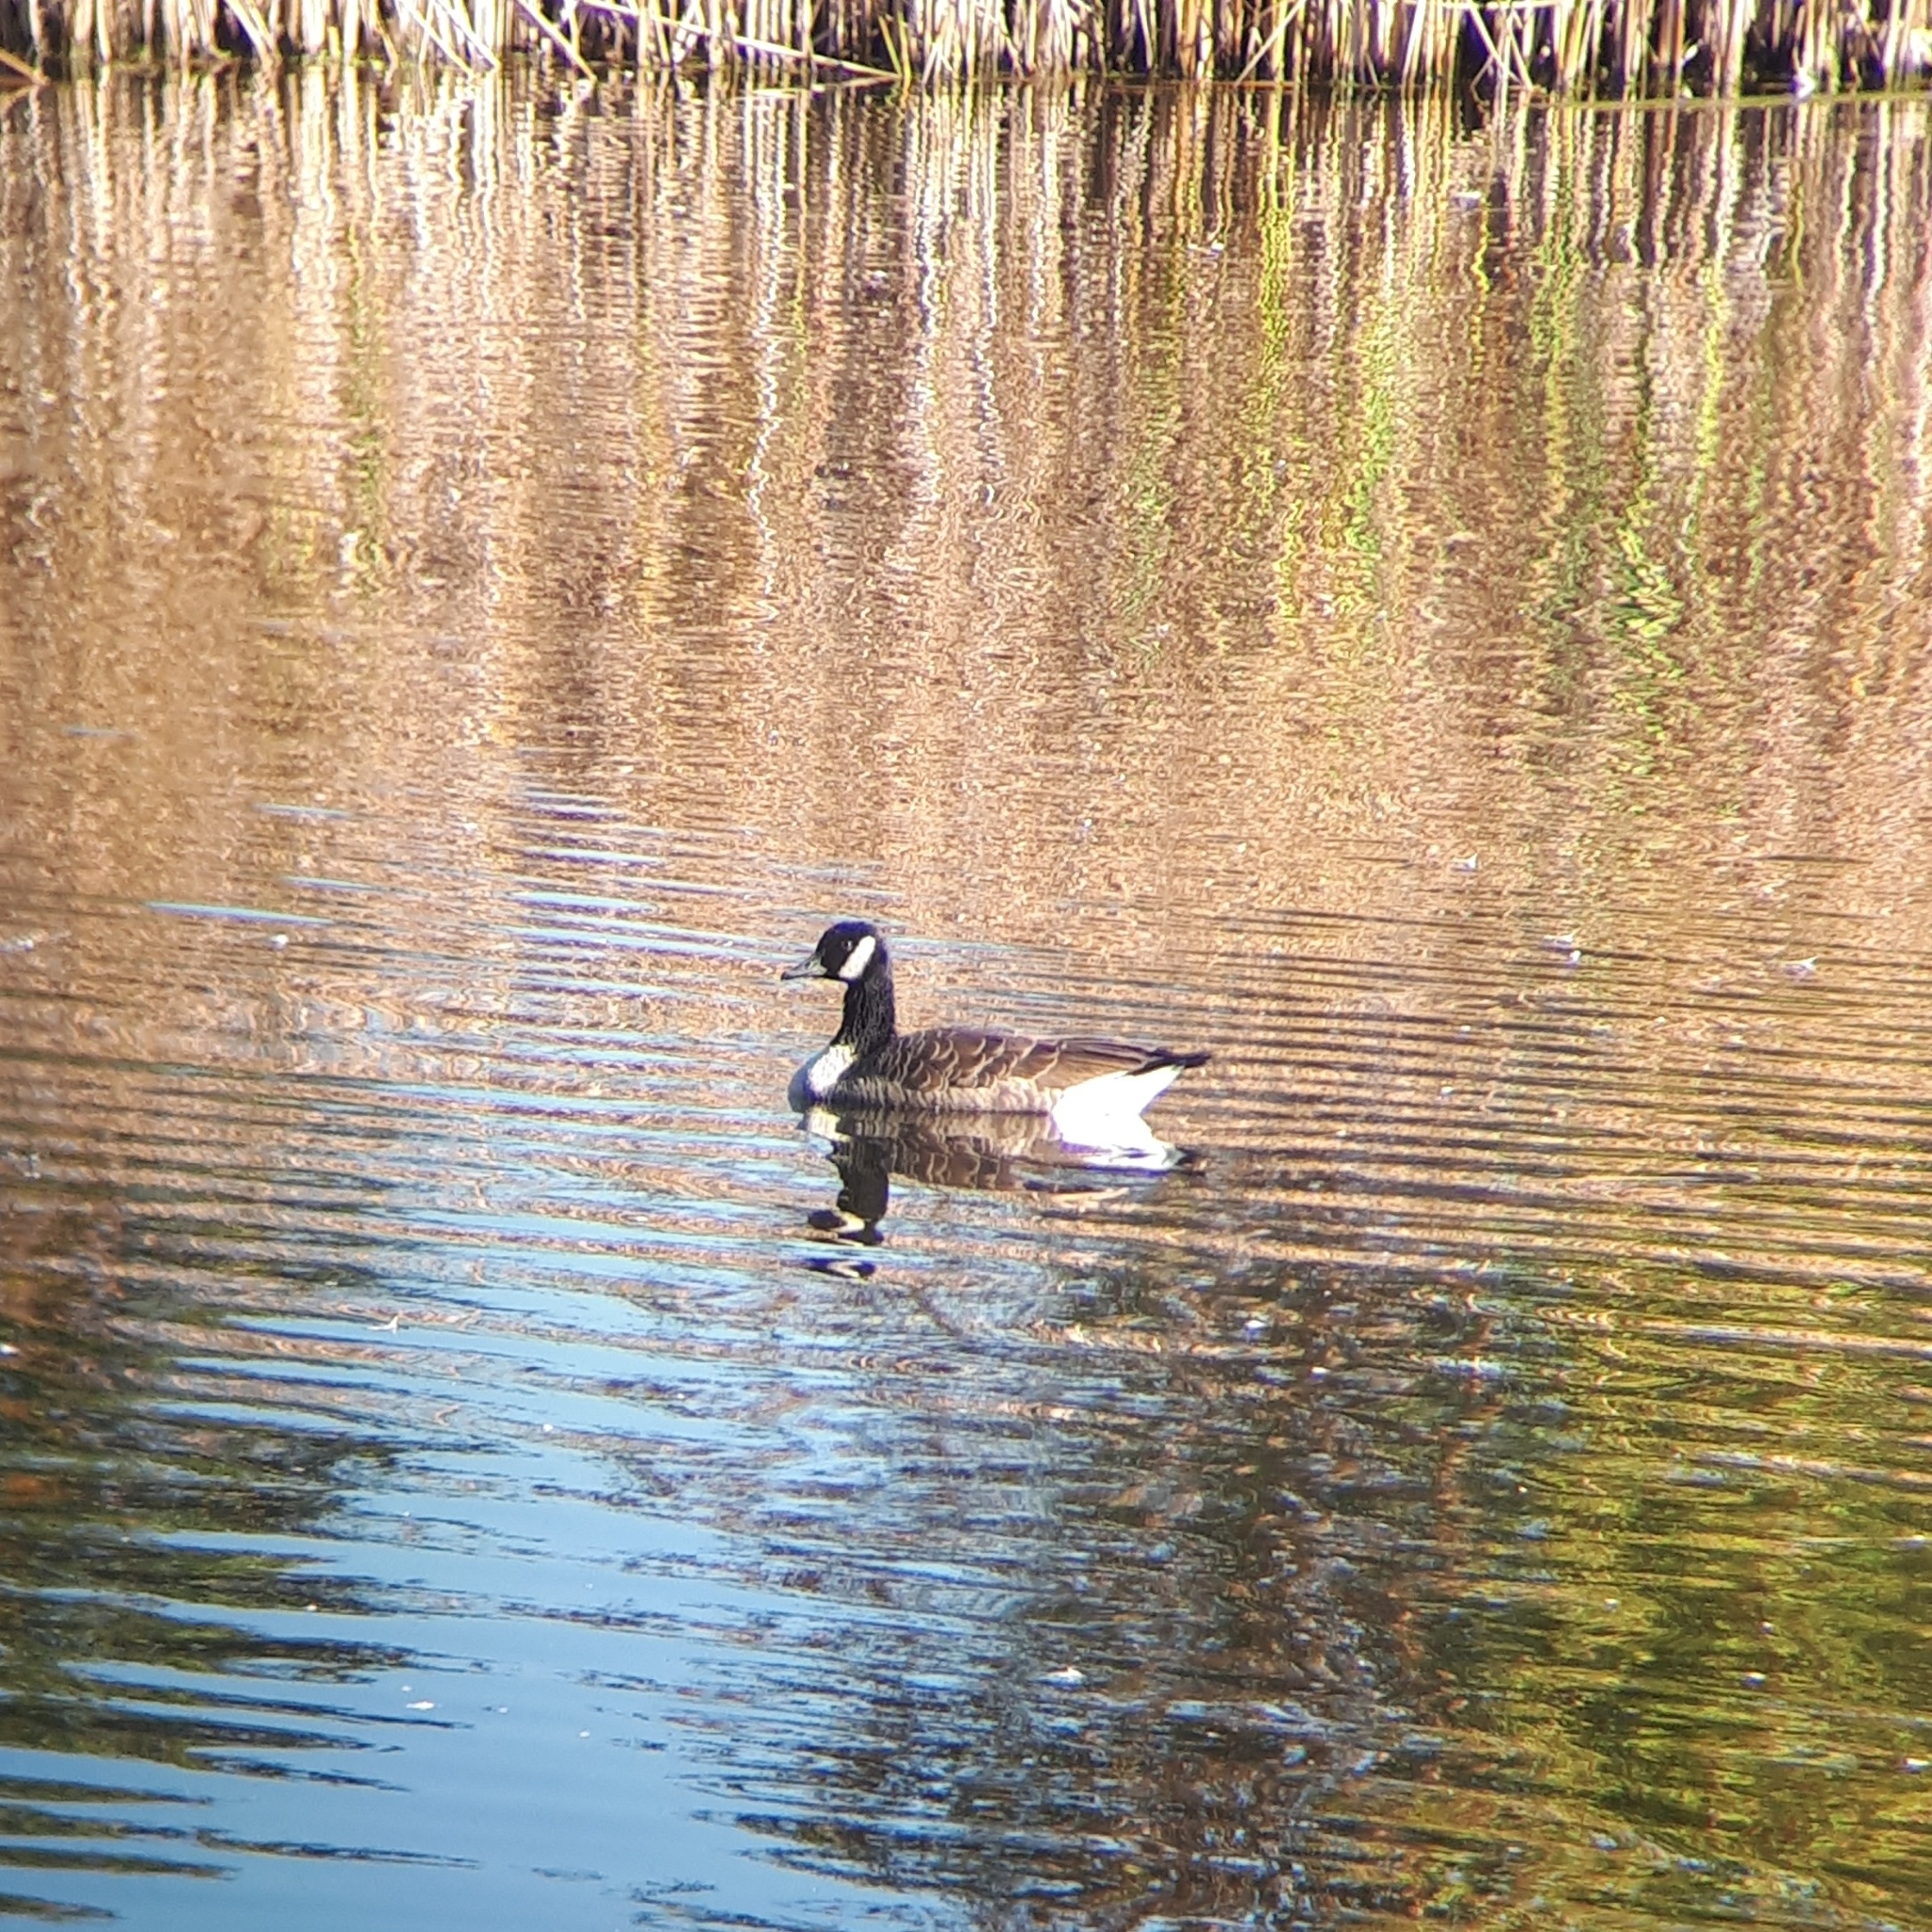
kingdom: Animalia
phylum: Chordata
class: Aves
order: Anseriformes
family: Anatidae
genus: Branta
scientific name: Branta canadensis
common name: Canada goose
